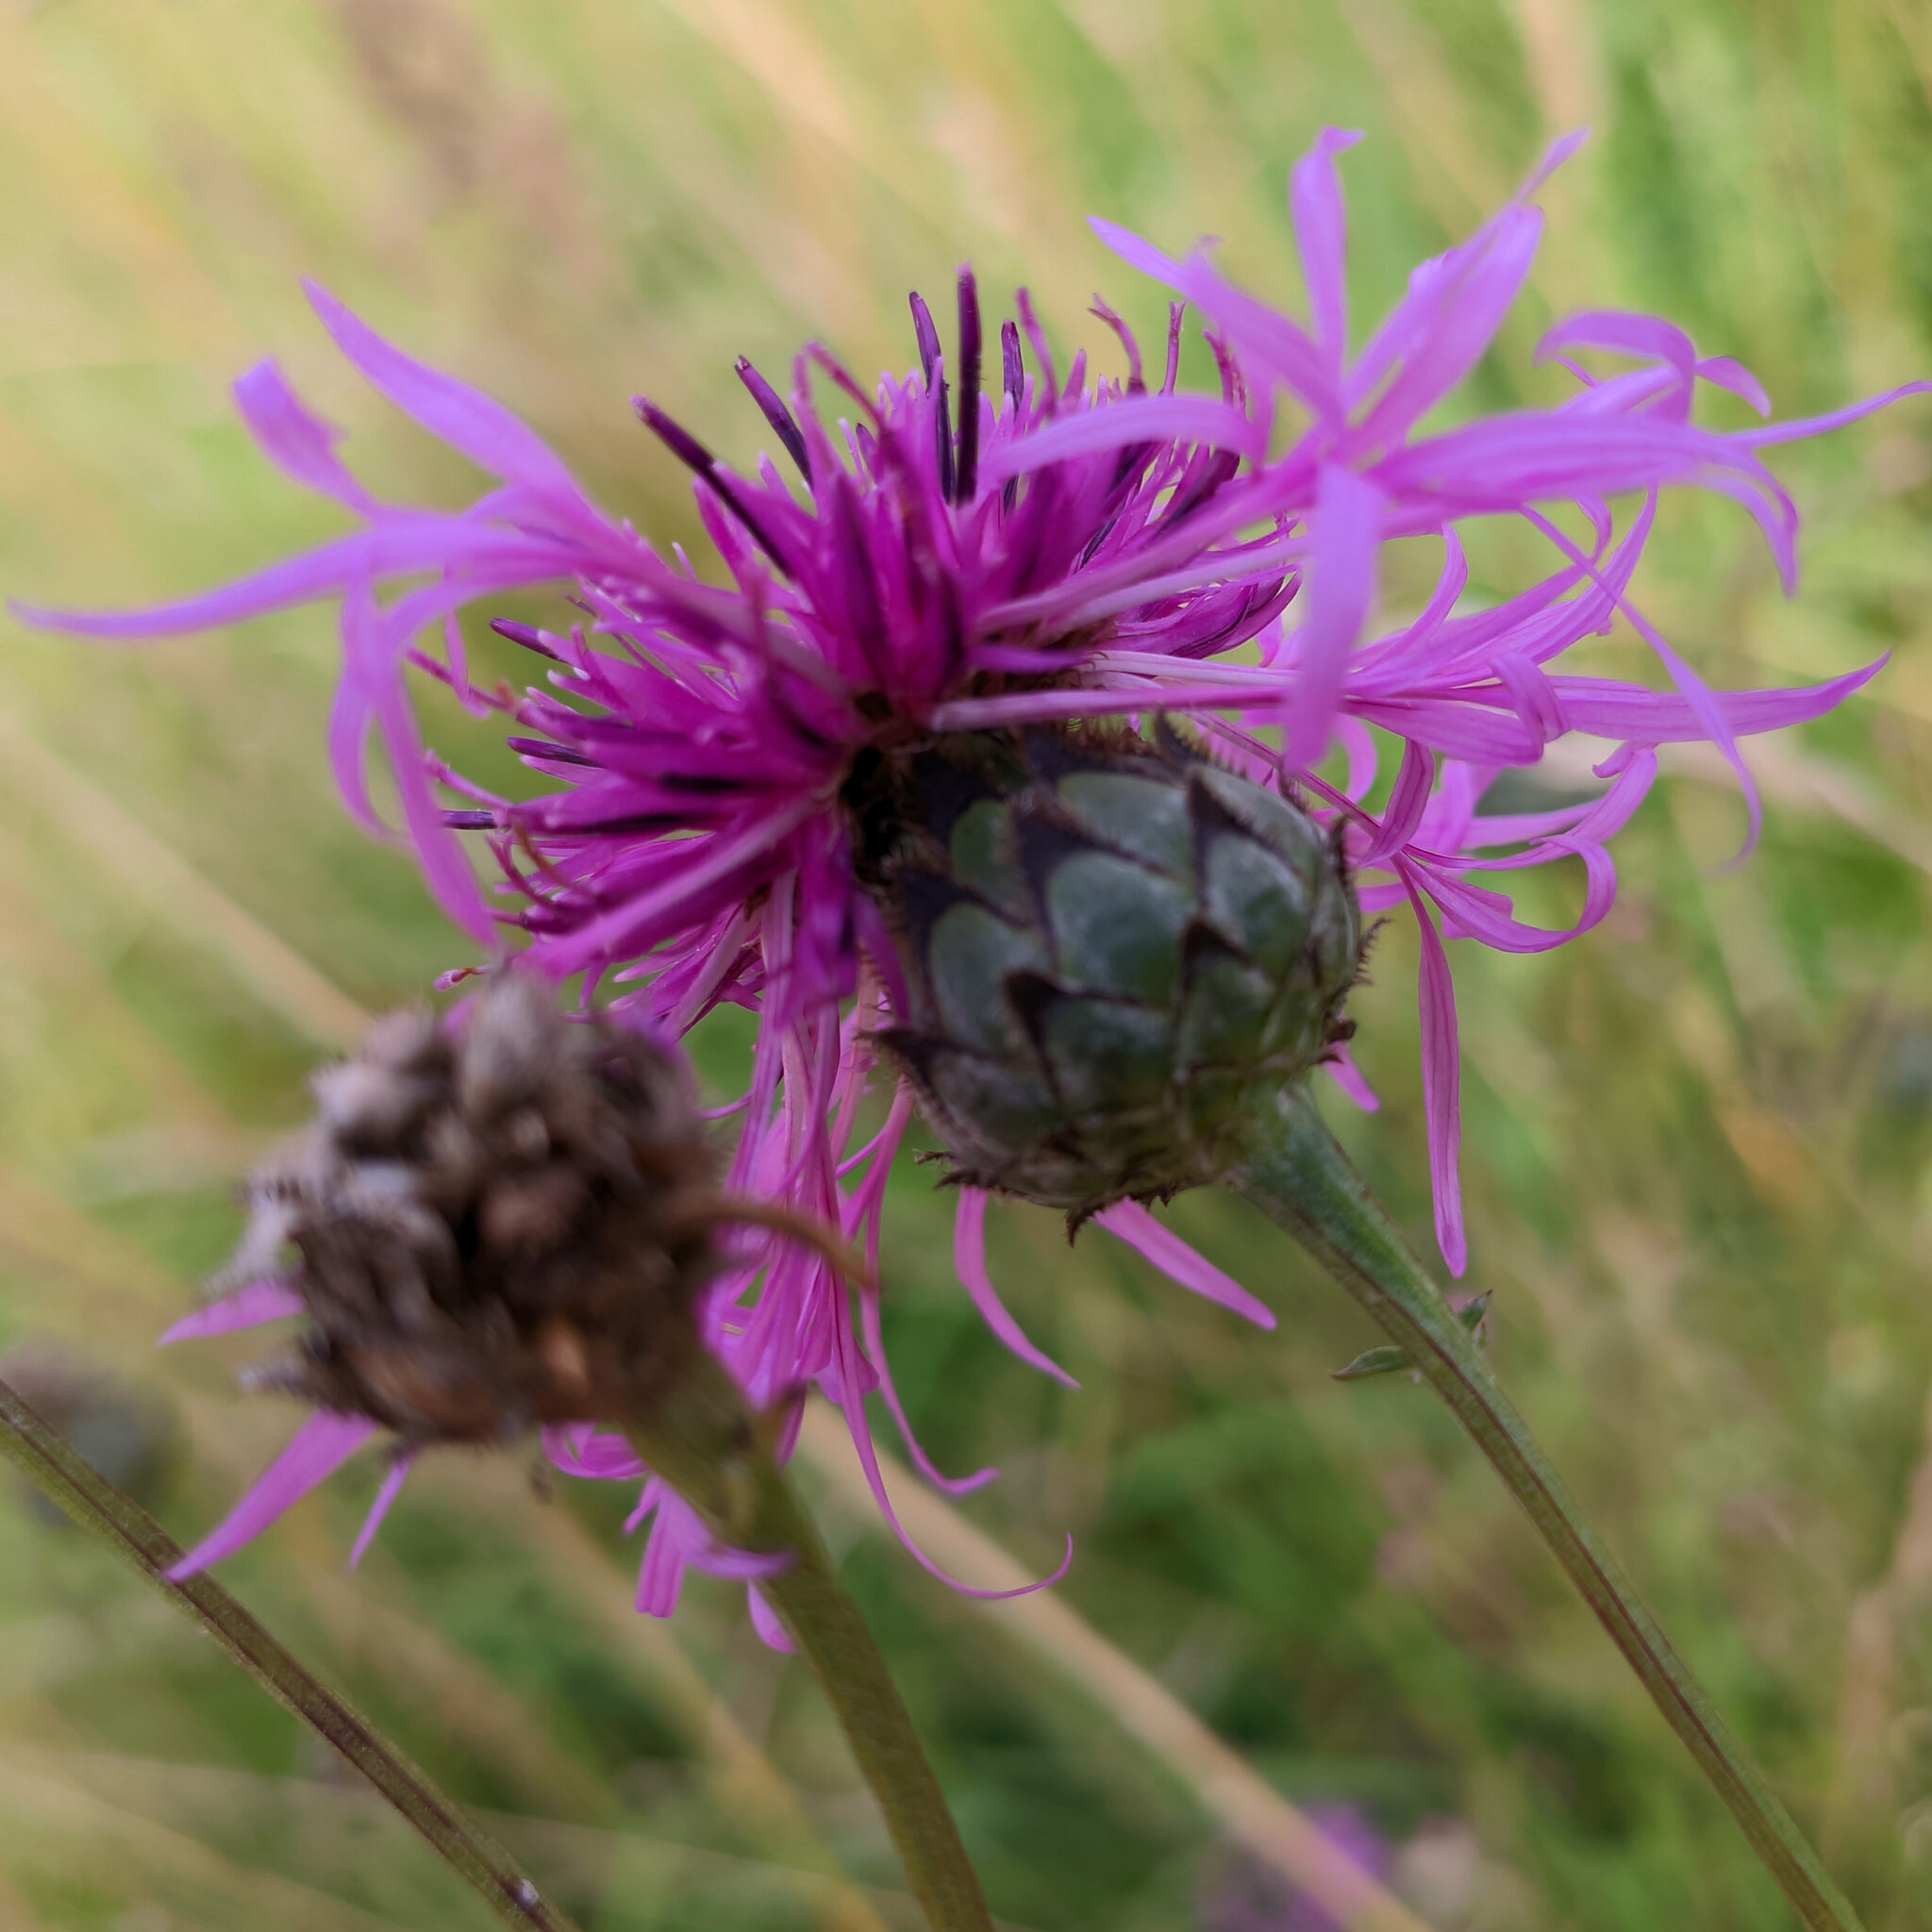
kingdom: Plantae
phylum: Tracheophyta
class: Magnoliopsida
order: Asterales
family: Asteraceae
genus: Centaurea
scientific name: Centaurea scabiosa
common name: Greater knapweed
